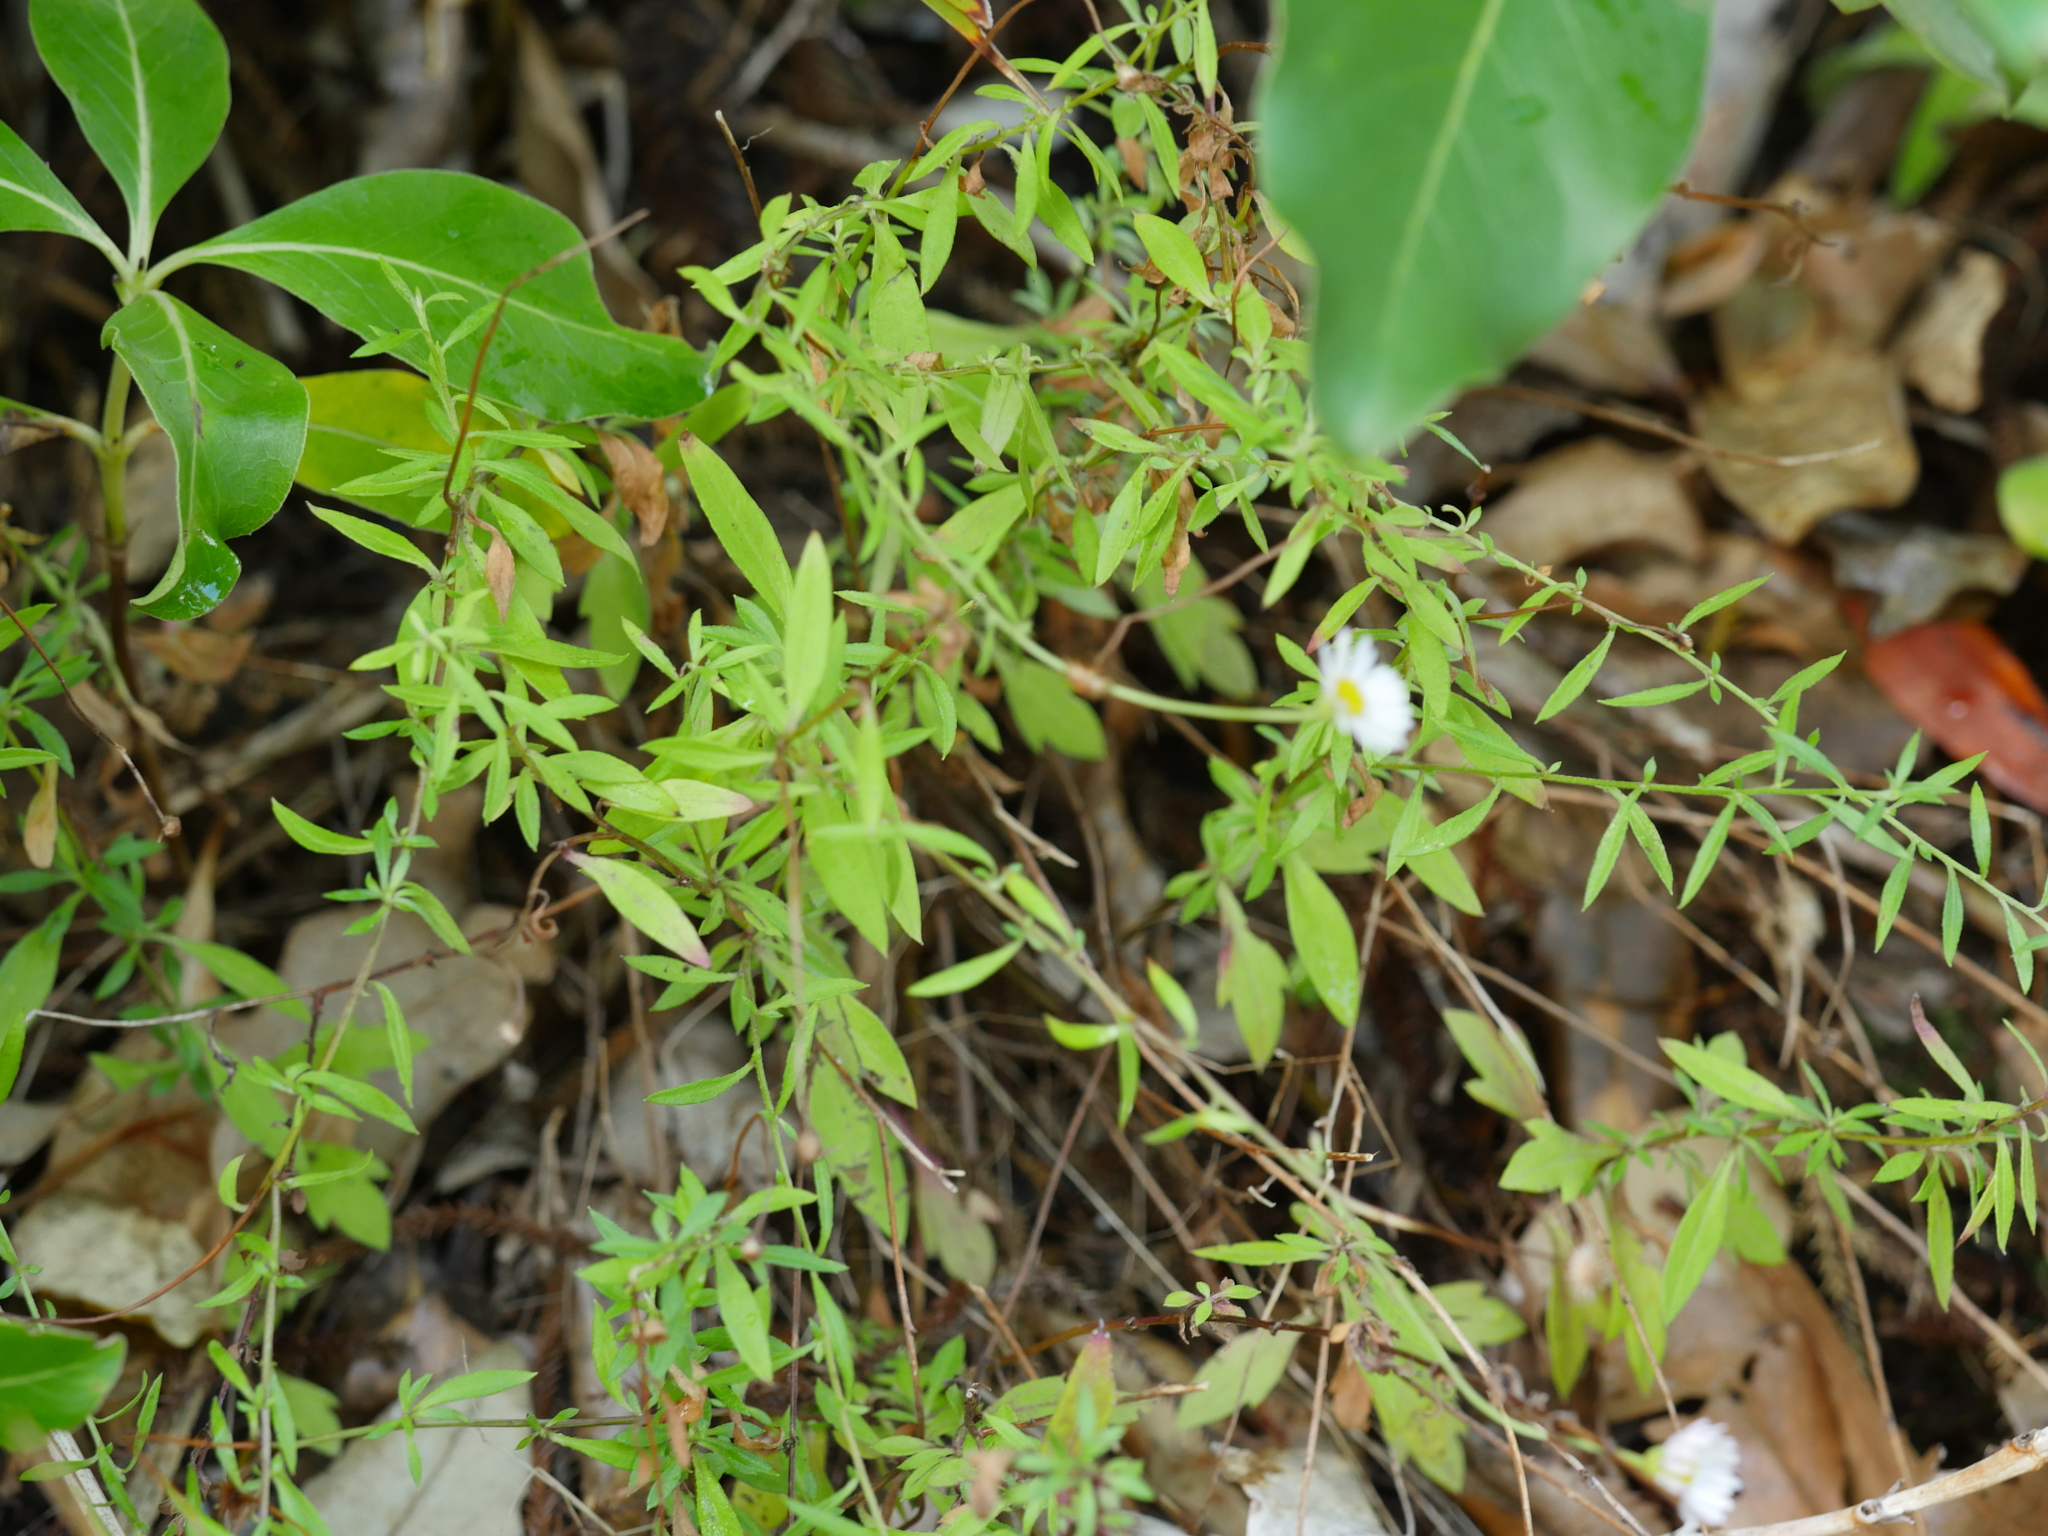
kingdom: Plantae
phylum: Tracheophyta
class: Magnoliopsida
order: Asterales
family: Asteraceae
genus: Erigeron
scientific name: Erigeron karvinskianus
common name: Mexican fleabane
